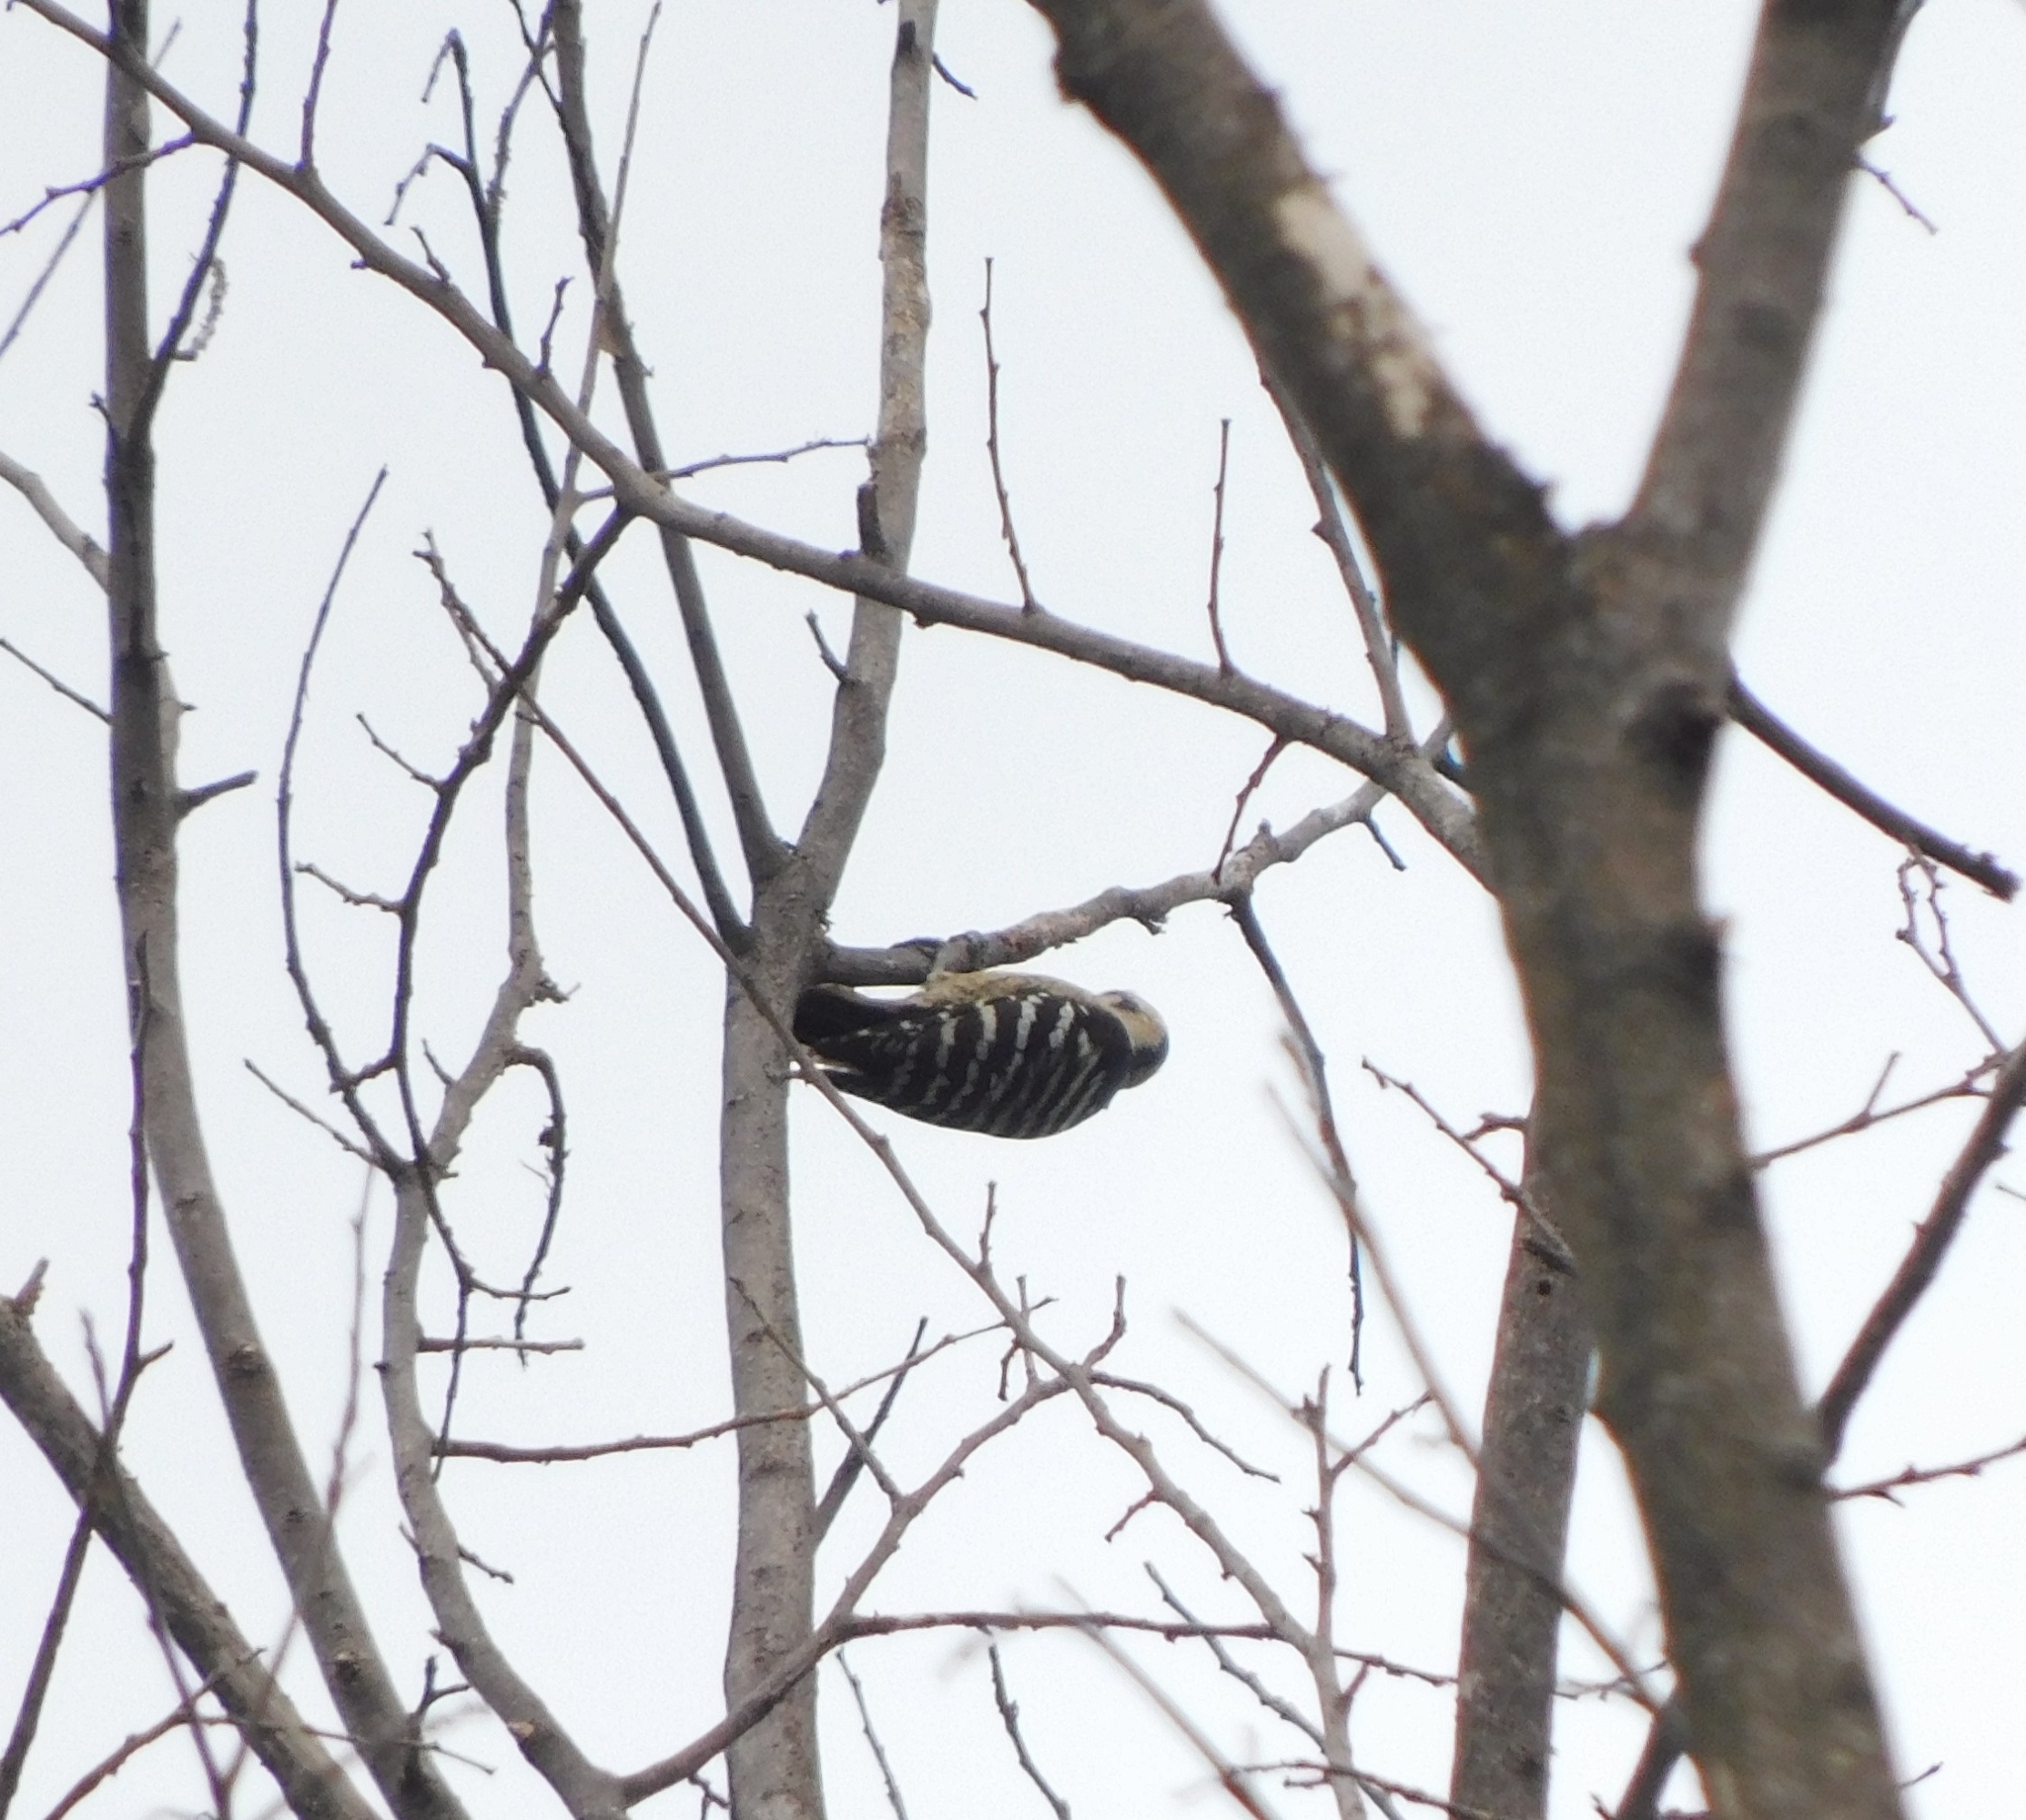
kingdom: Animalia
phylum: Chordata
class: Aves
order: Piciformes
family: Picidae
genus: Yungipicus
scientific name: Yungipicus canicapillus
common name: Grey-capped pygmy woodpecker
